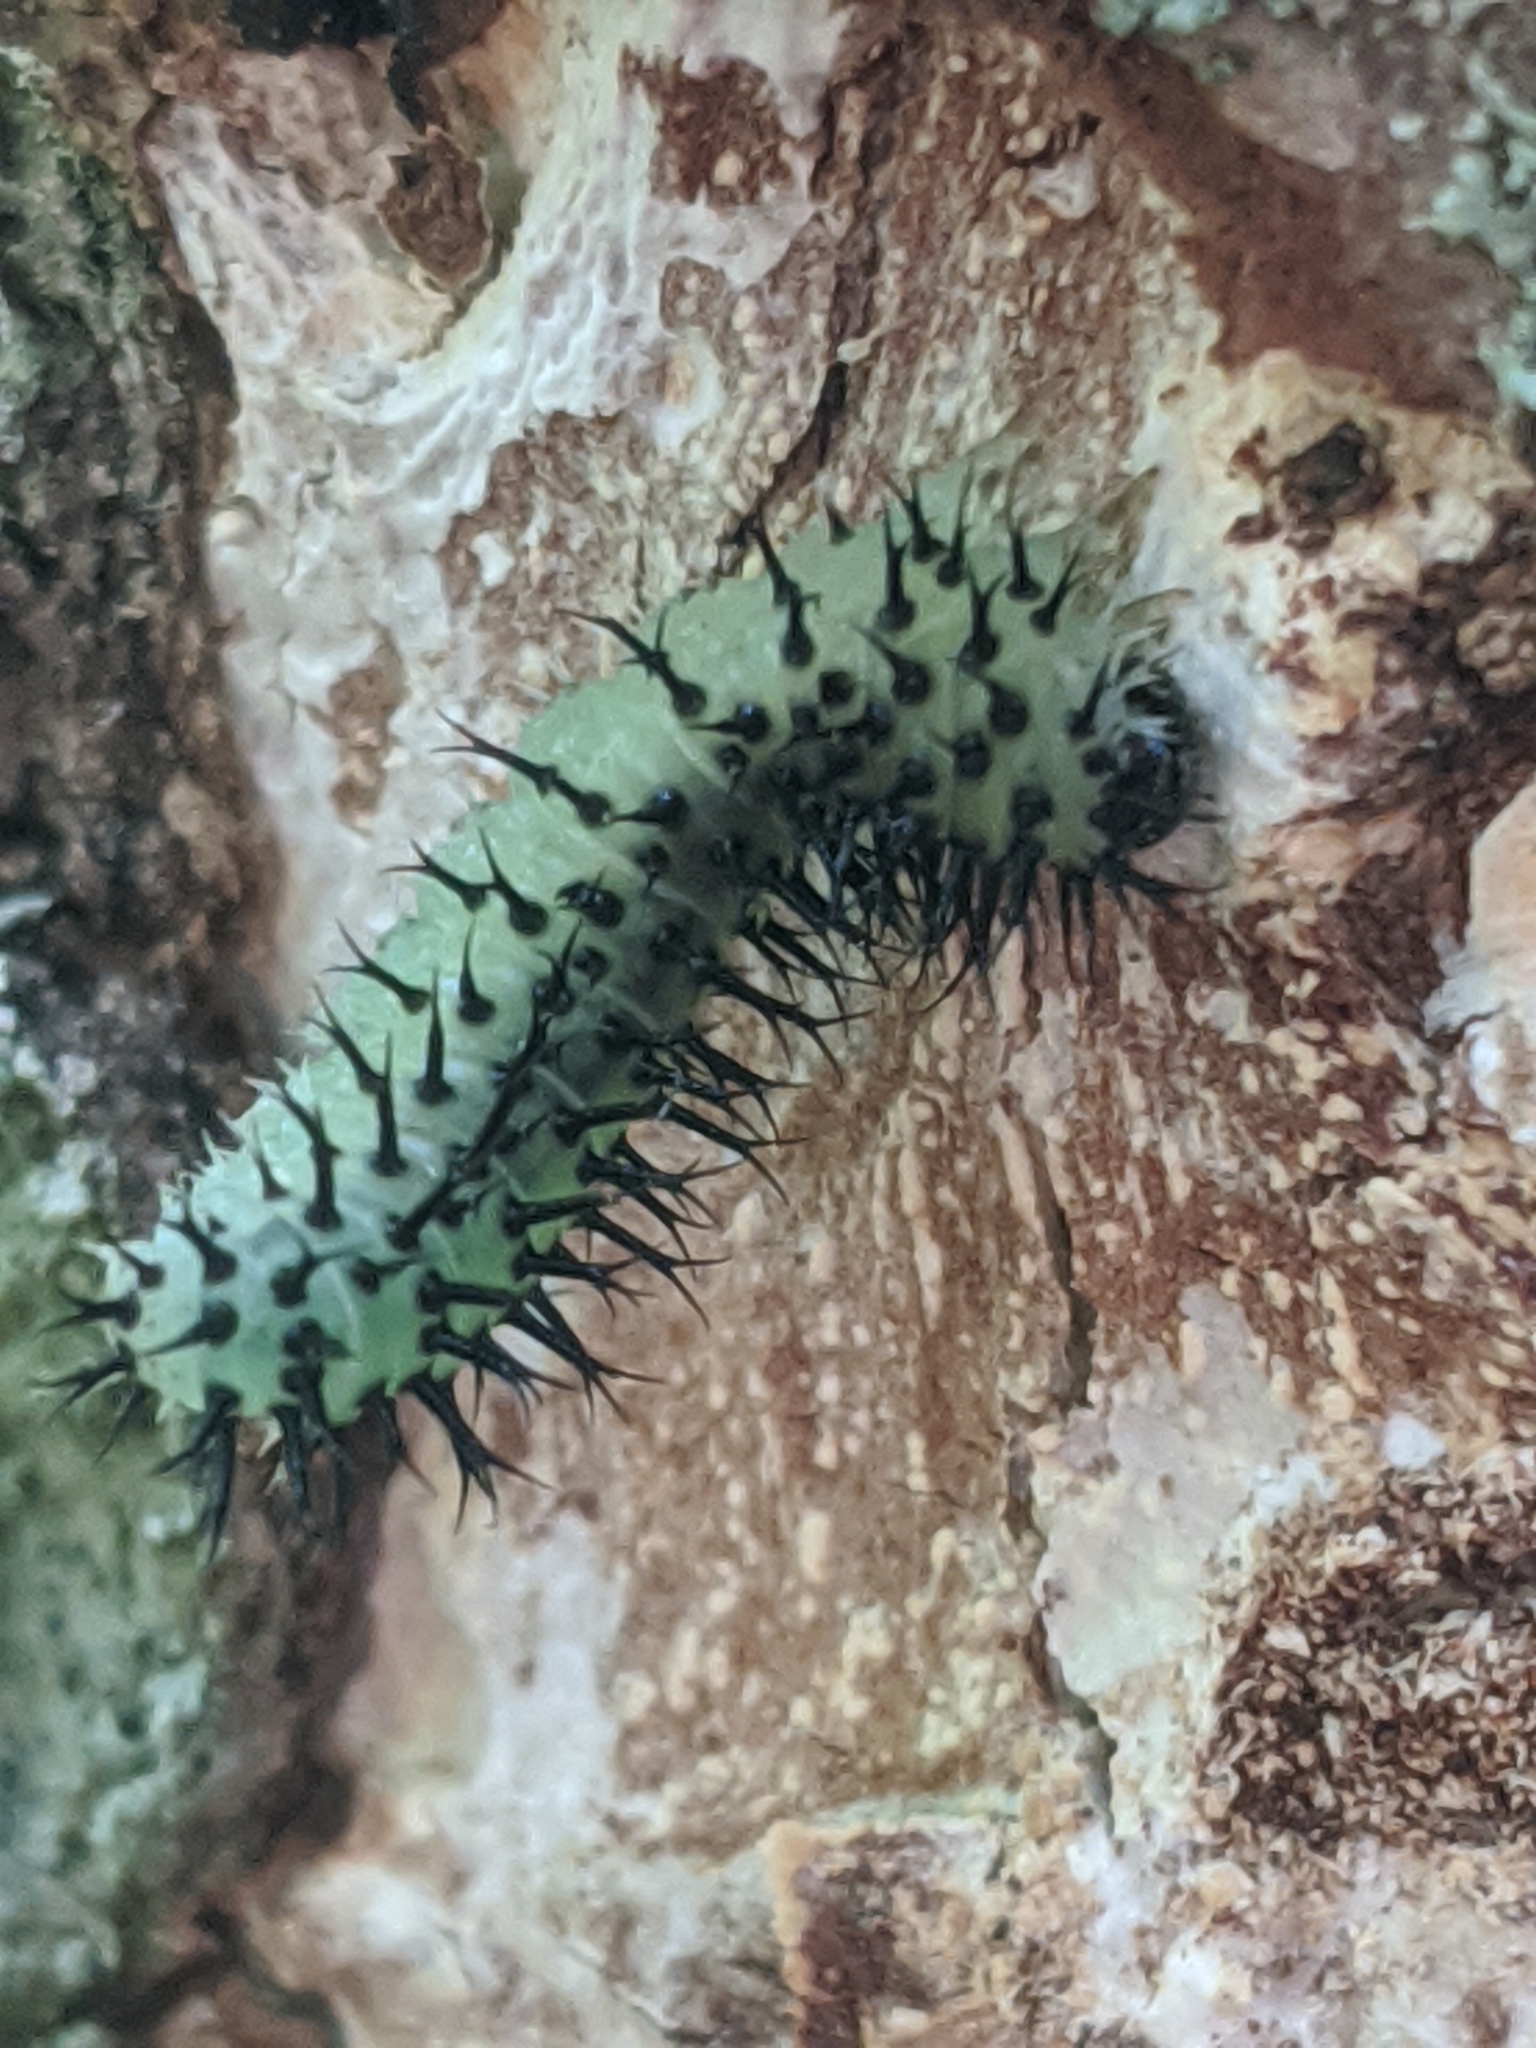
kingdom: Animalia
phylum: Arthropoda
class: Insecta
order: Hymenoptera
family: Tenthredinidae
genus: Periclista
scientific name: Periclista pubescens
